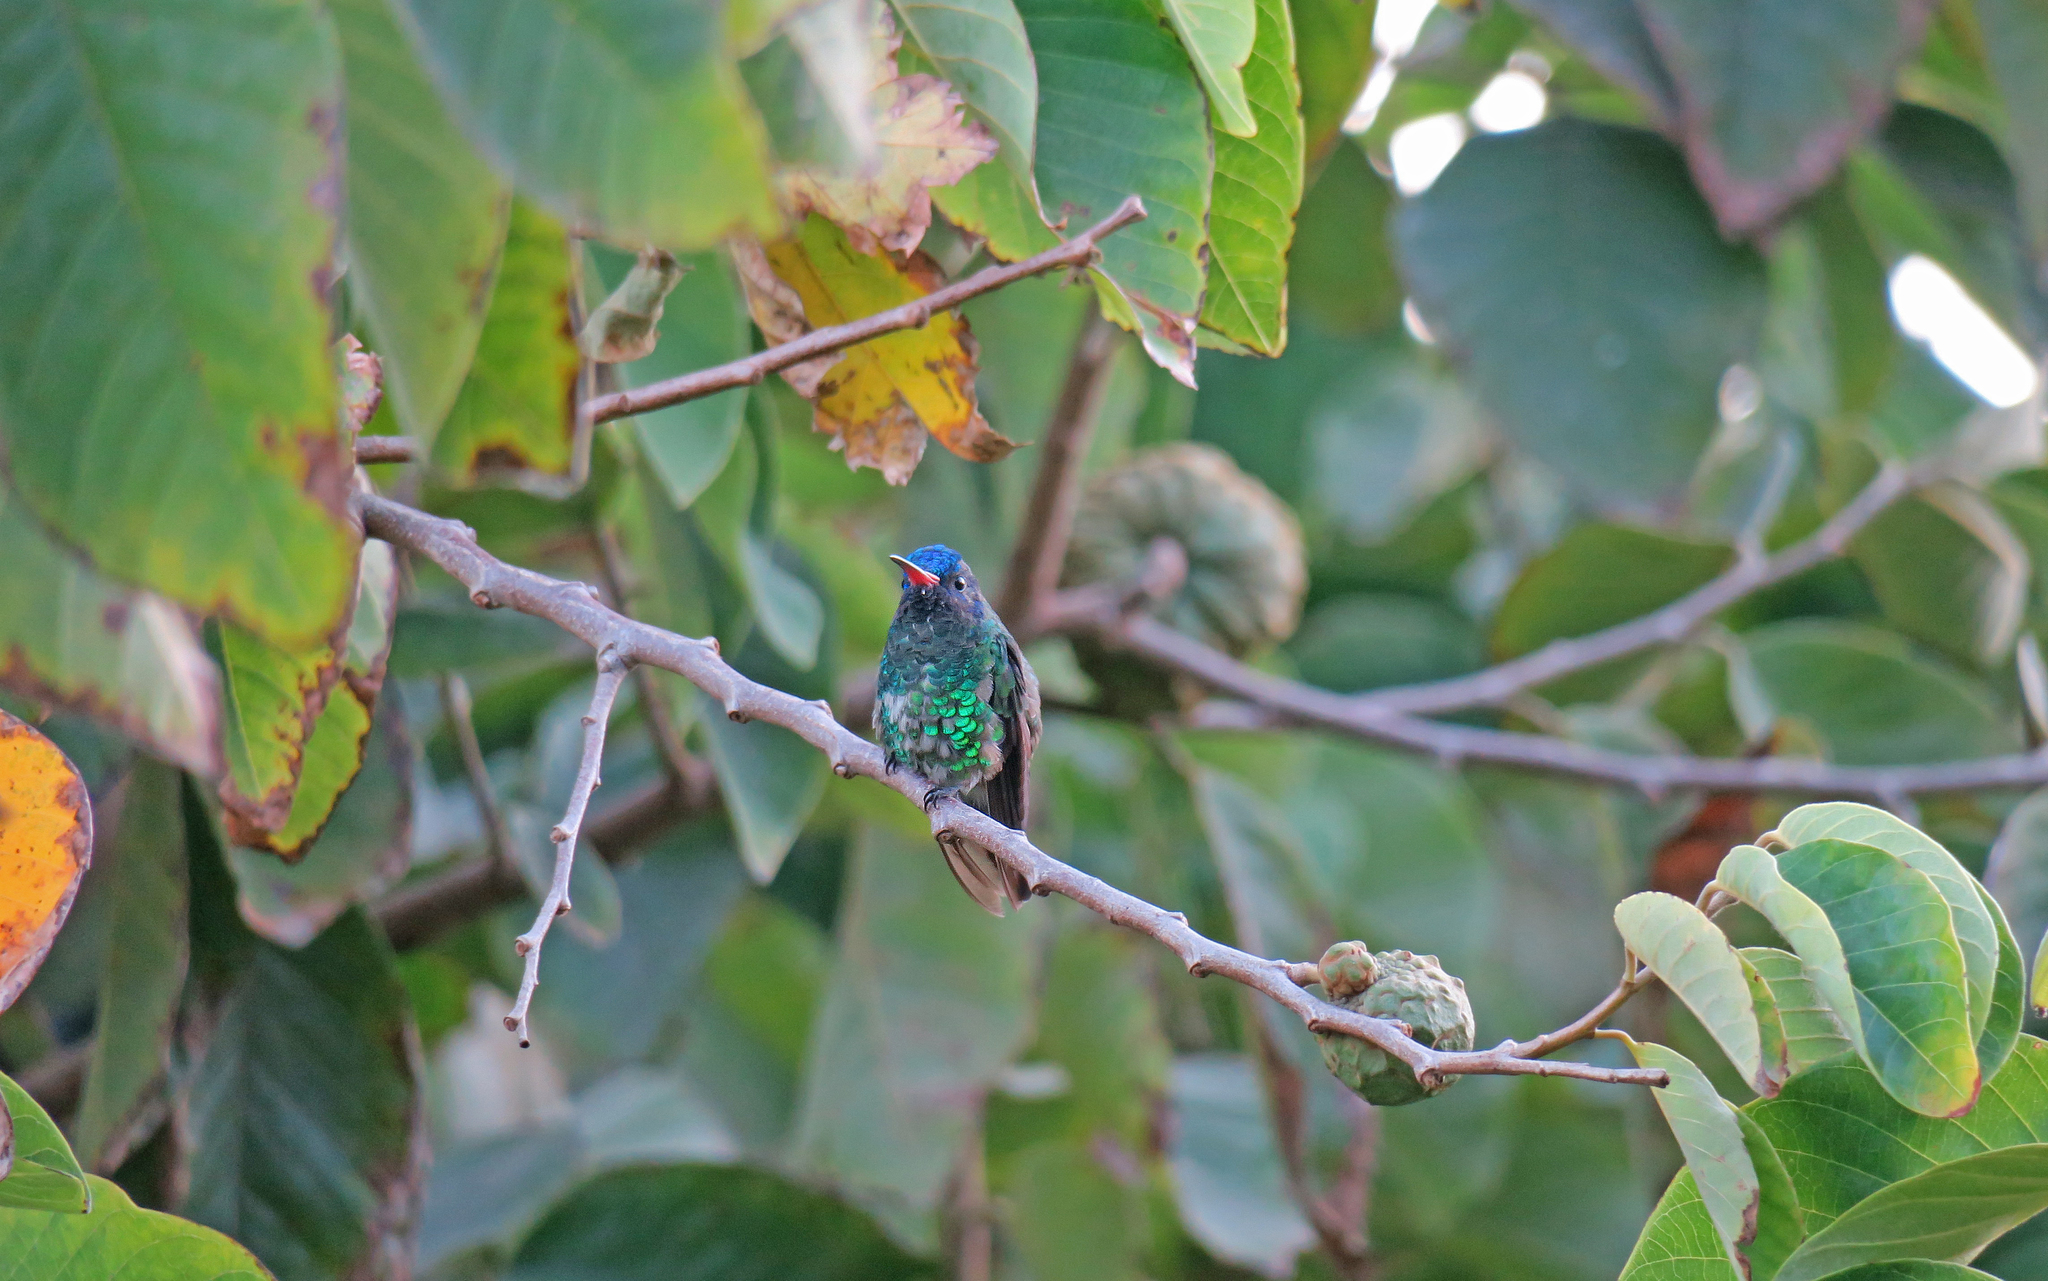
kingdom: Animalia
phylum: Chordata
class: Aves
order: Apodiformes
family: Trochilidae
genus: Chrysuronia
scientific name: Chrysuronia grayi
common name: Blue-headed sapphire
